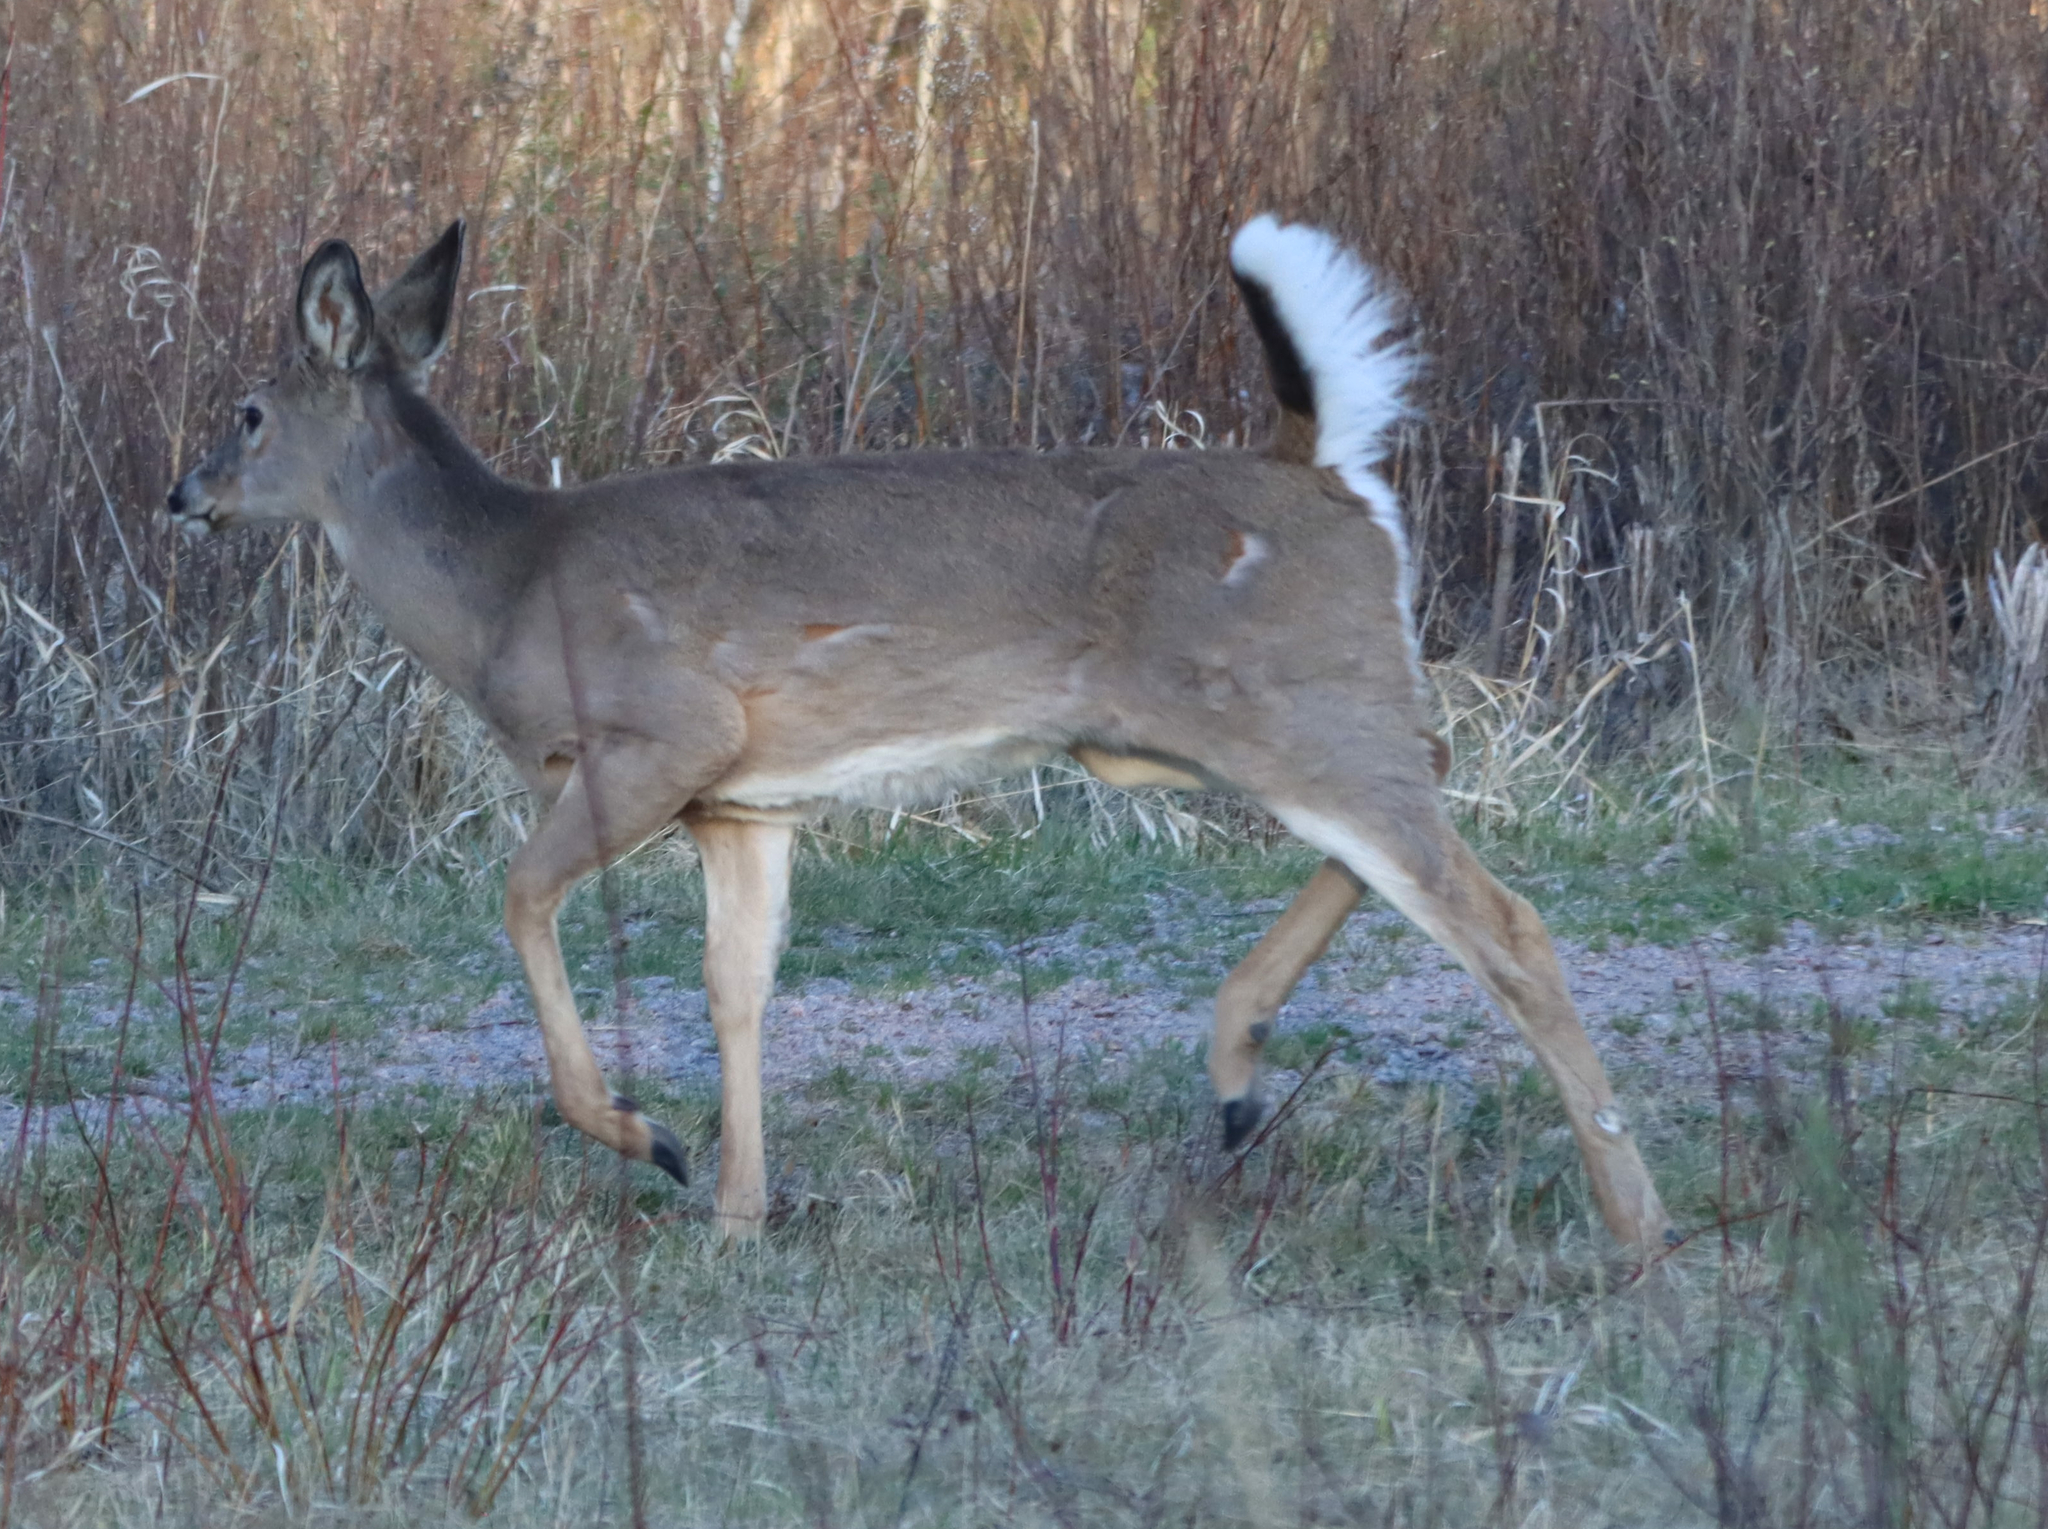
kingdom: Animalia
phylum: Chordata
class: Mammalia
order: Artiodactyla
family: Cervidae
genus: Odocoileus
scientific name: Odocoileus virginianus
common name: White-tailed deer
